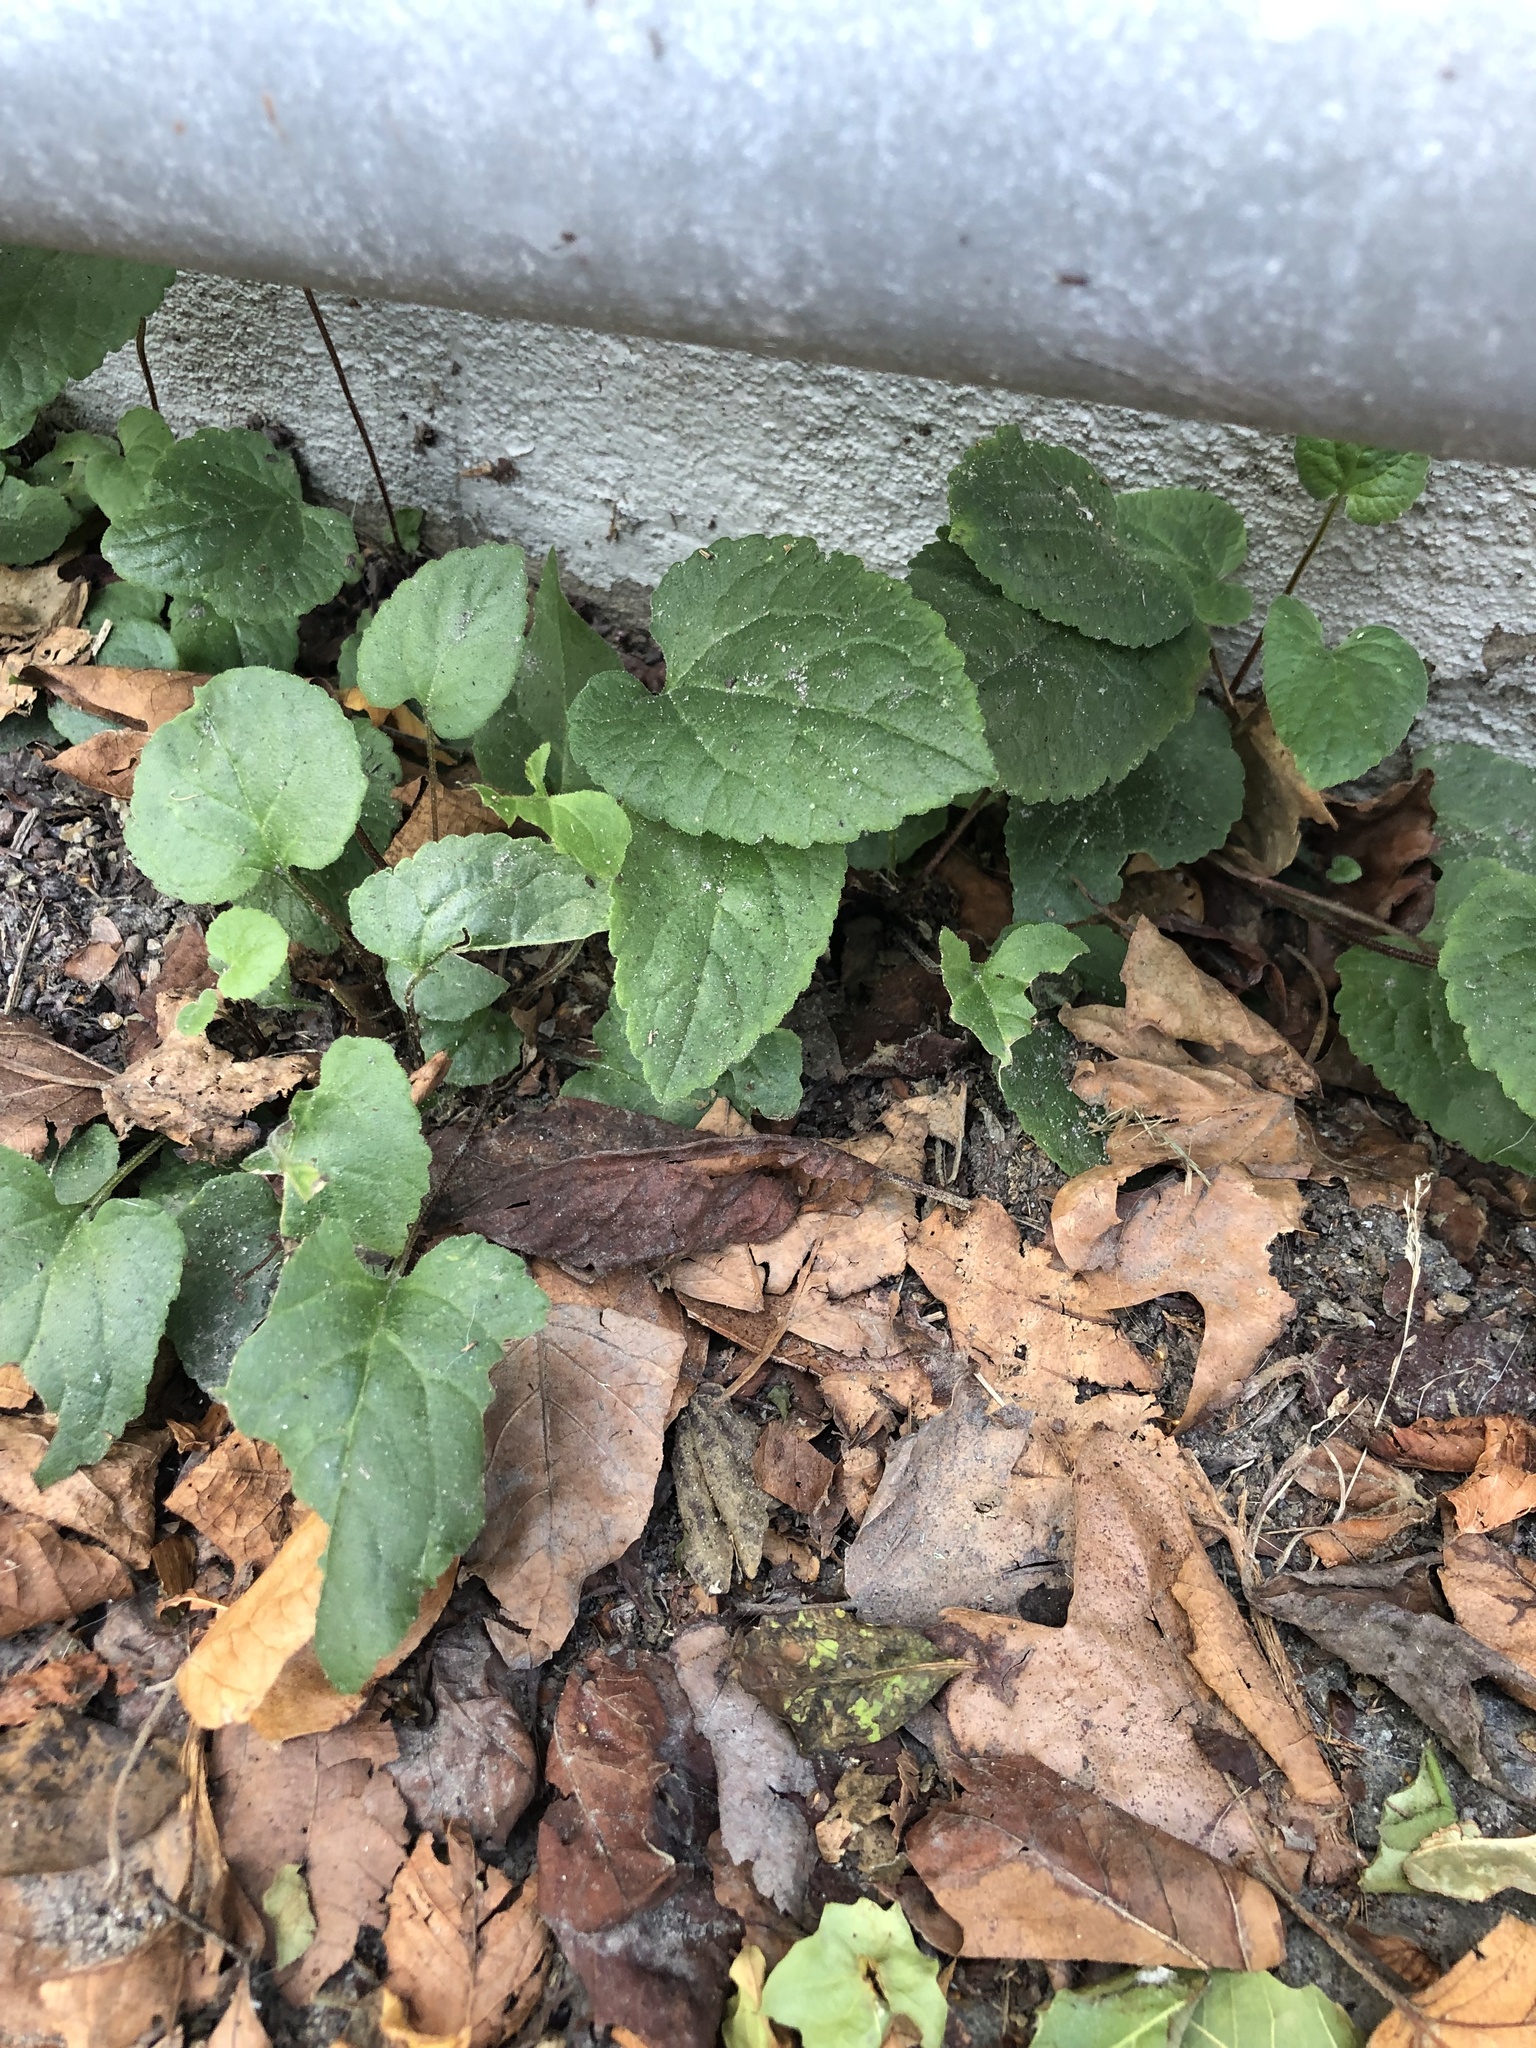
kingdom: Plantae
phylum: Tracheophyta
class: Magnoliopsida
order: Asterales
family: Campanulaceae
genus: Campanula
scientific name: Campanula rapunculoides
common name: Creeping bellflower
